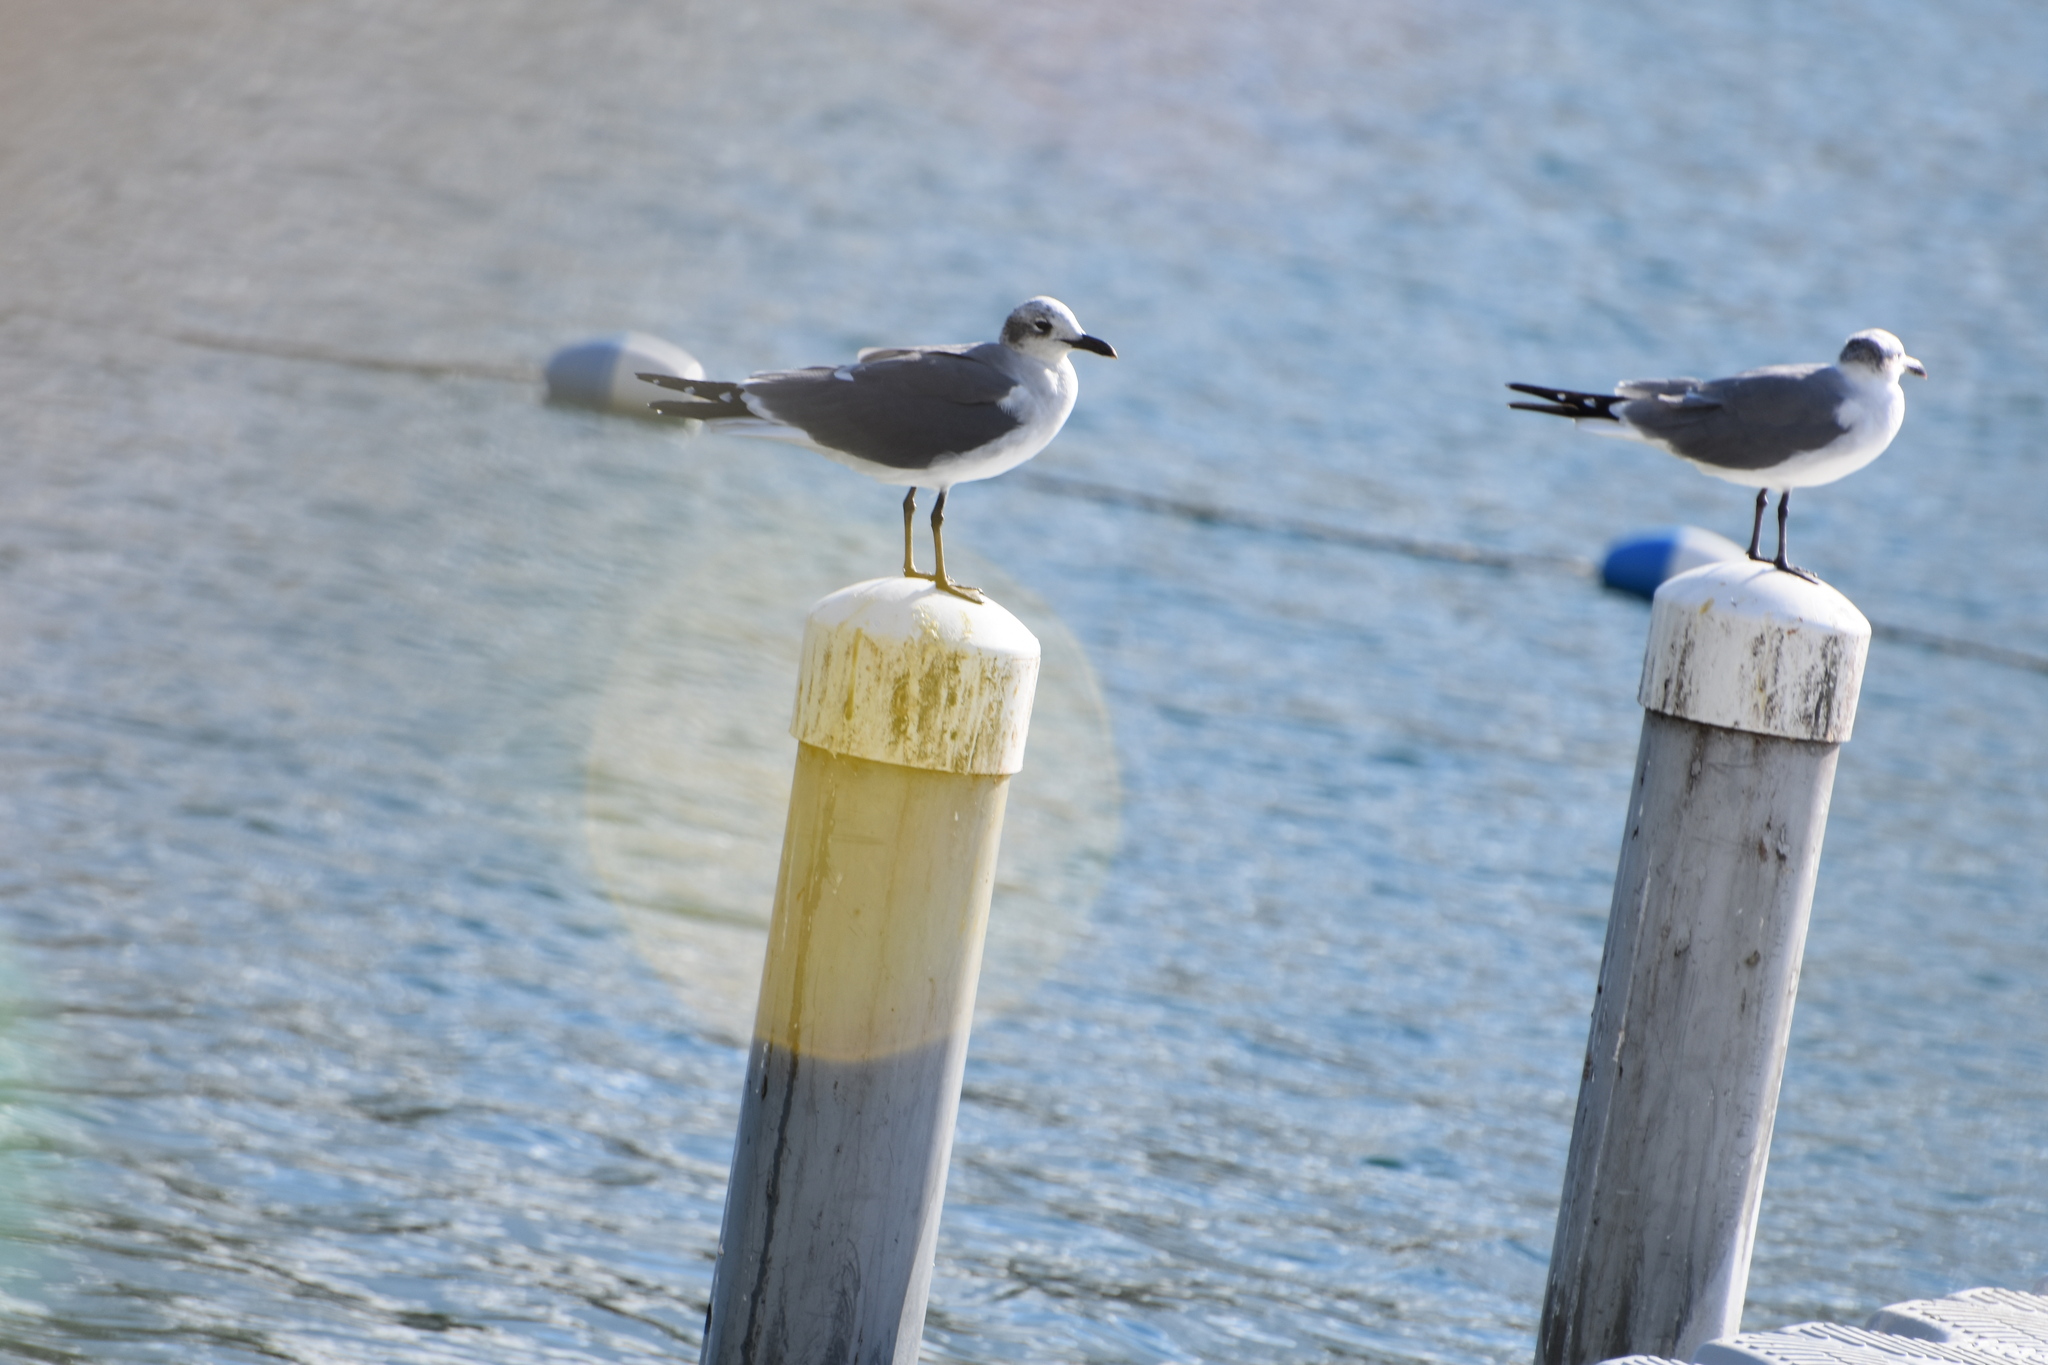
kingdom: Animalia
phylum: Chordata
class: Aves
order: Charadriiformes
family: Laridae
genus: Leucophaeus
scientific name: Leucophaeus atricilla
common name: Laughing gull
